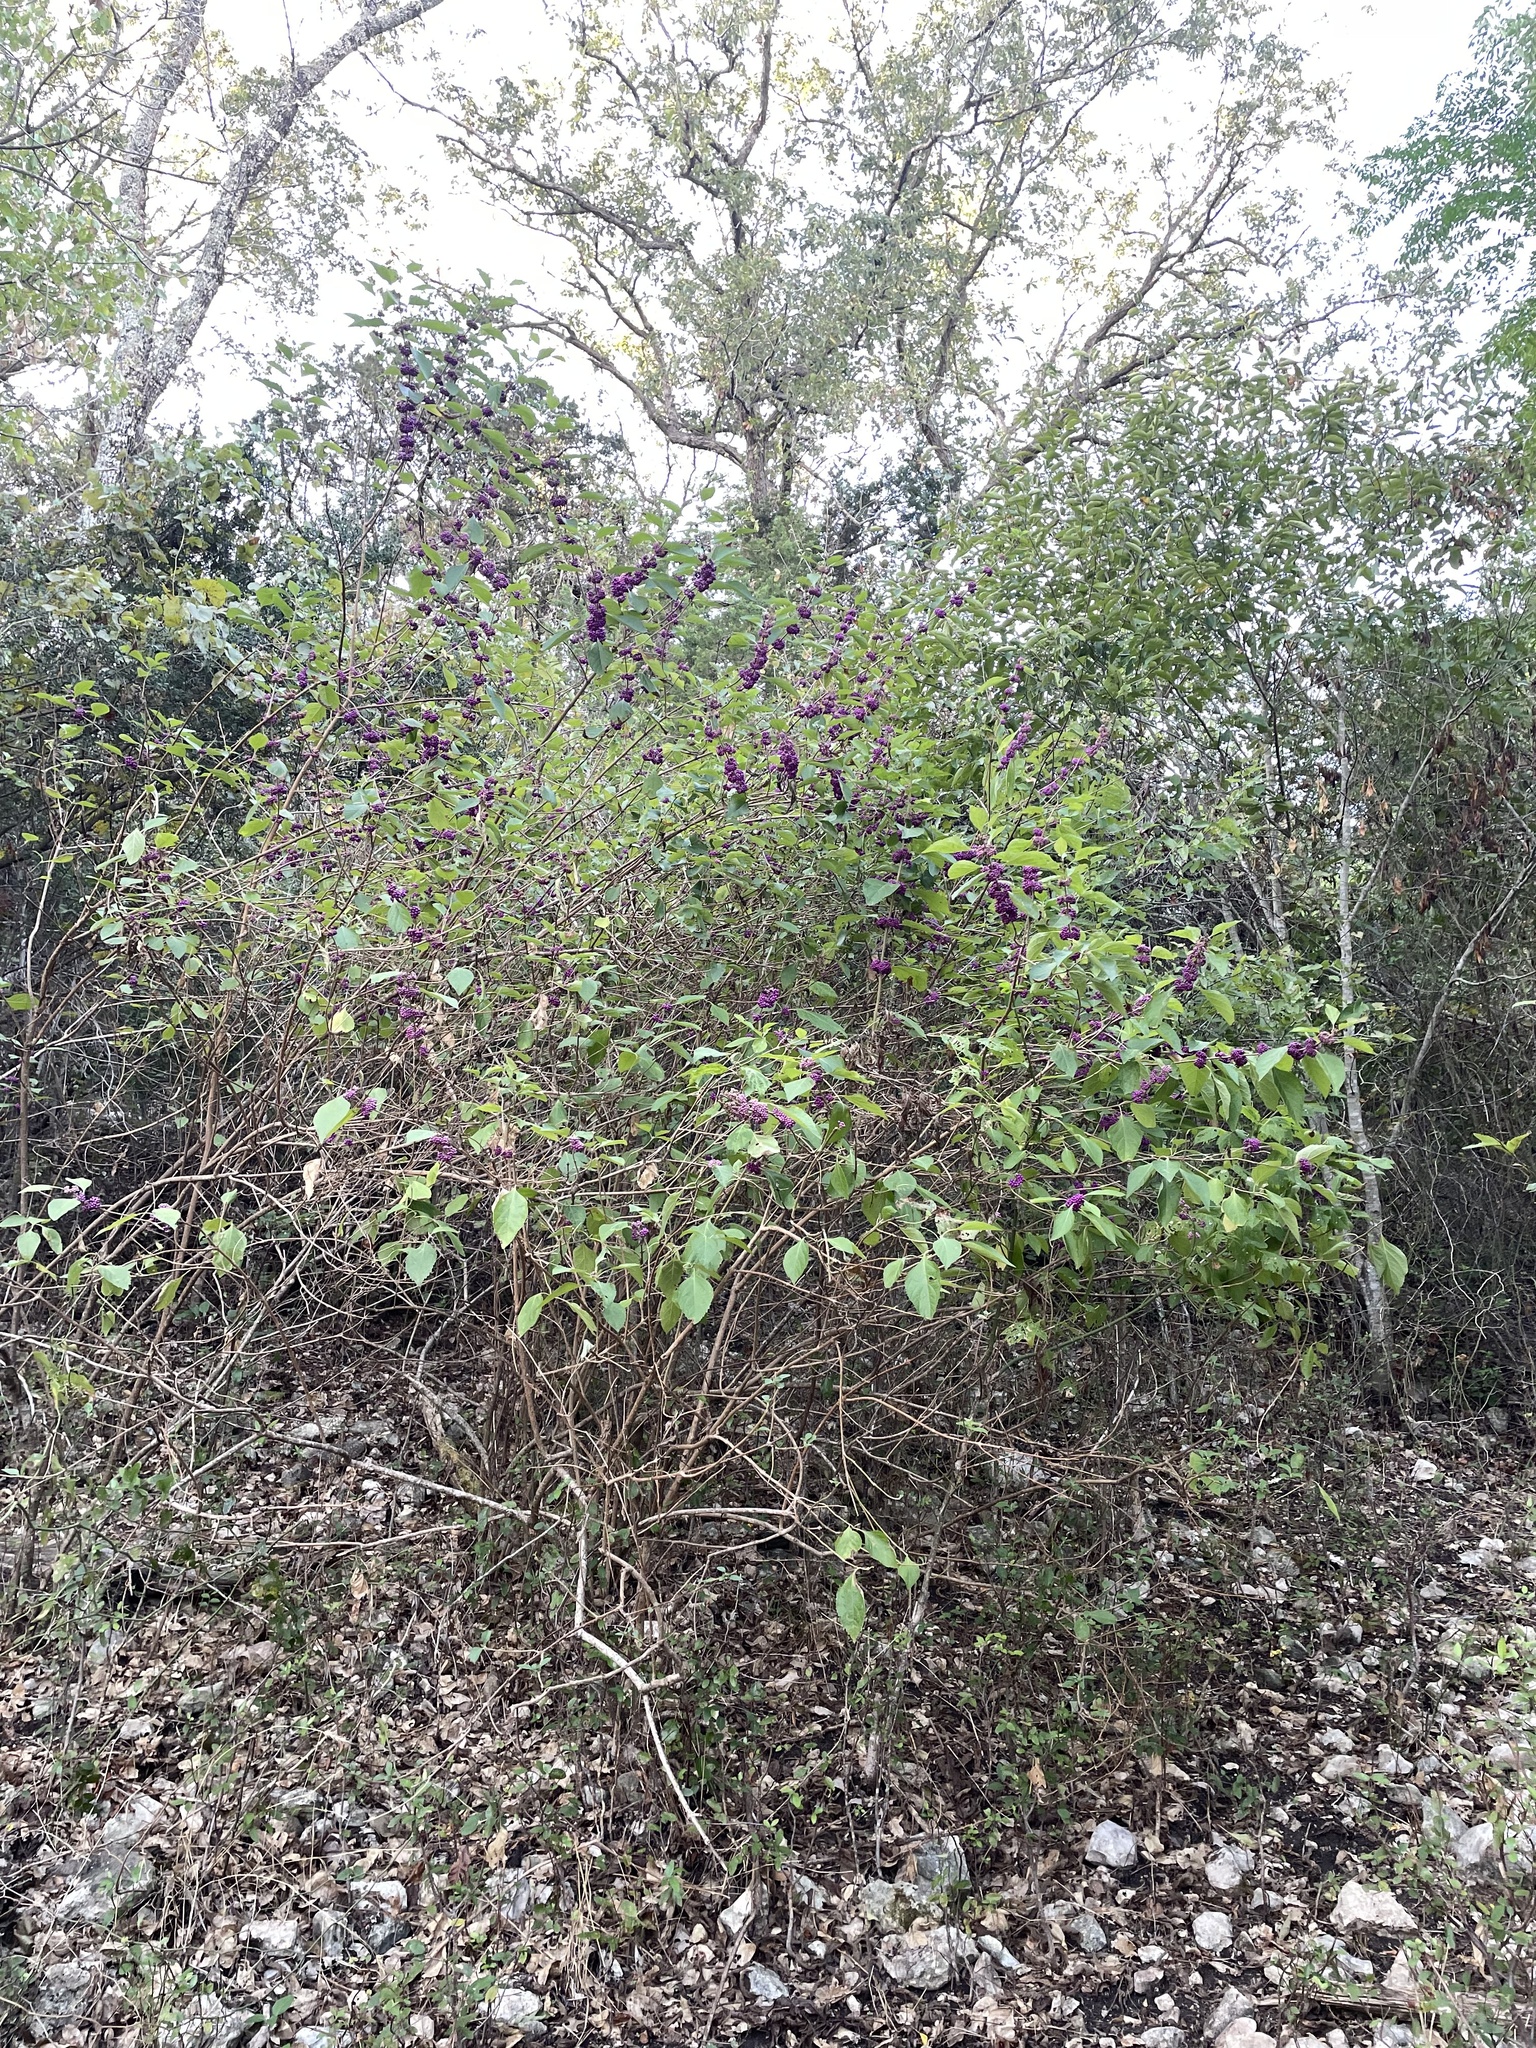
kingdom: Plantae
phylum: Tracheophyta
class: Magnoliopsida
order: Lamiales
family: Lamiaceae
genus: Callicarpa
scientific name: Callicarpa americana
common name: American beautyberry
